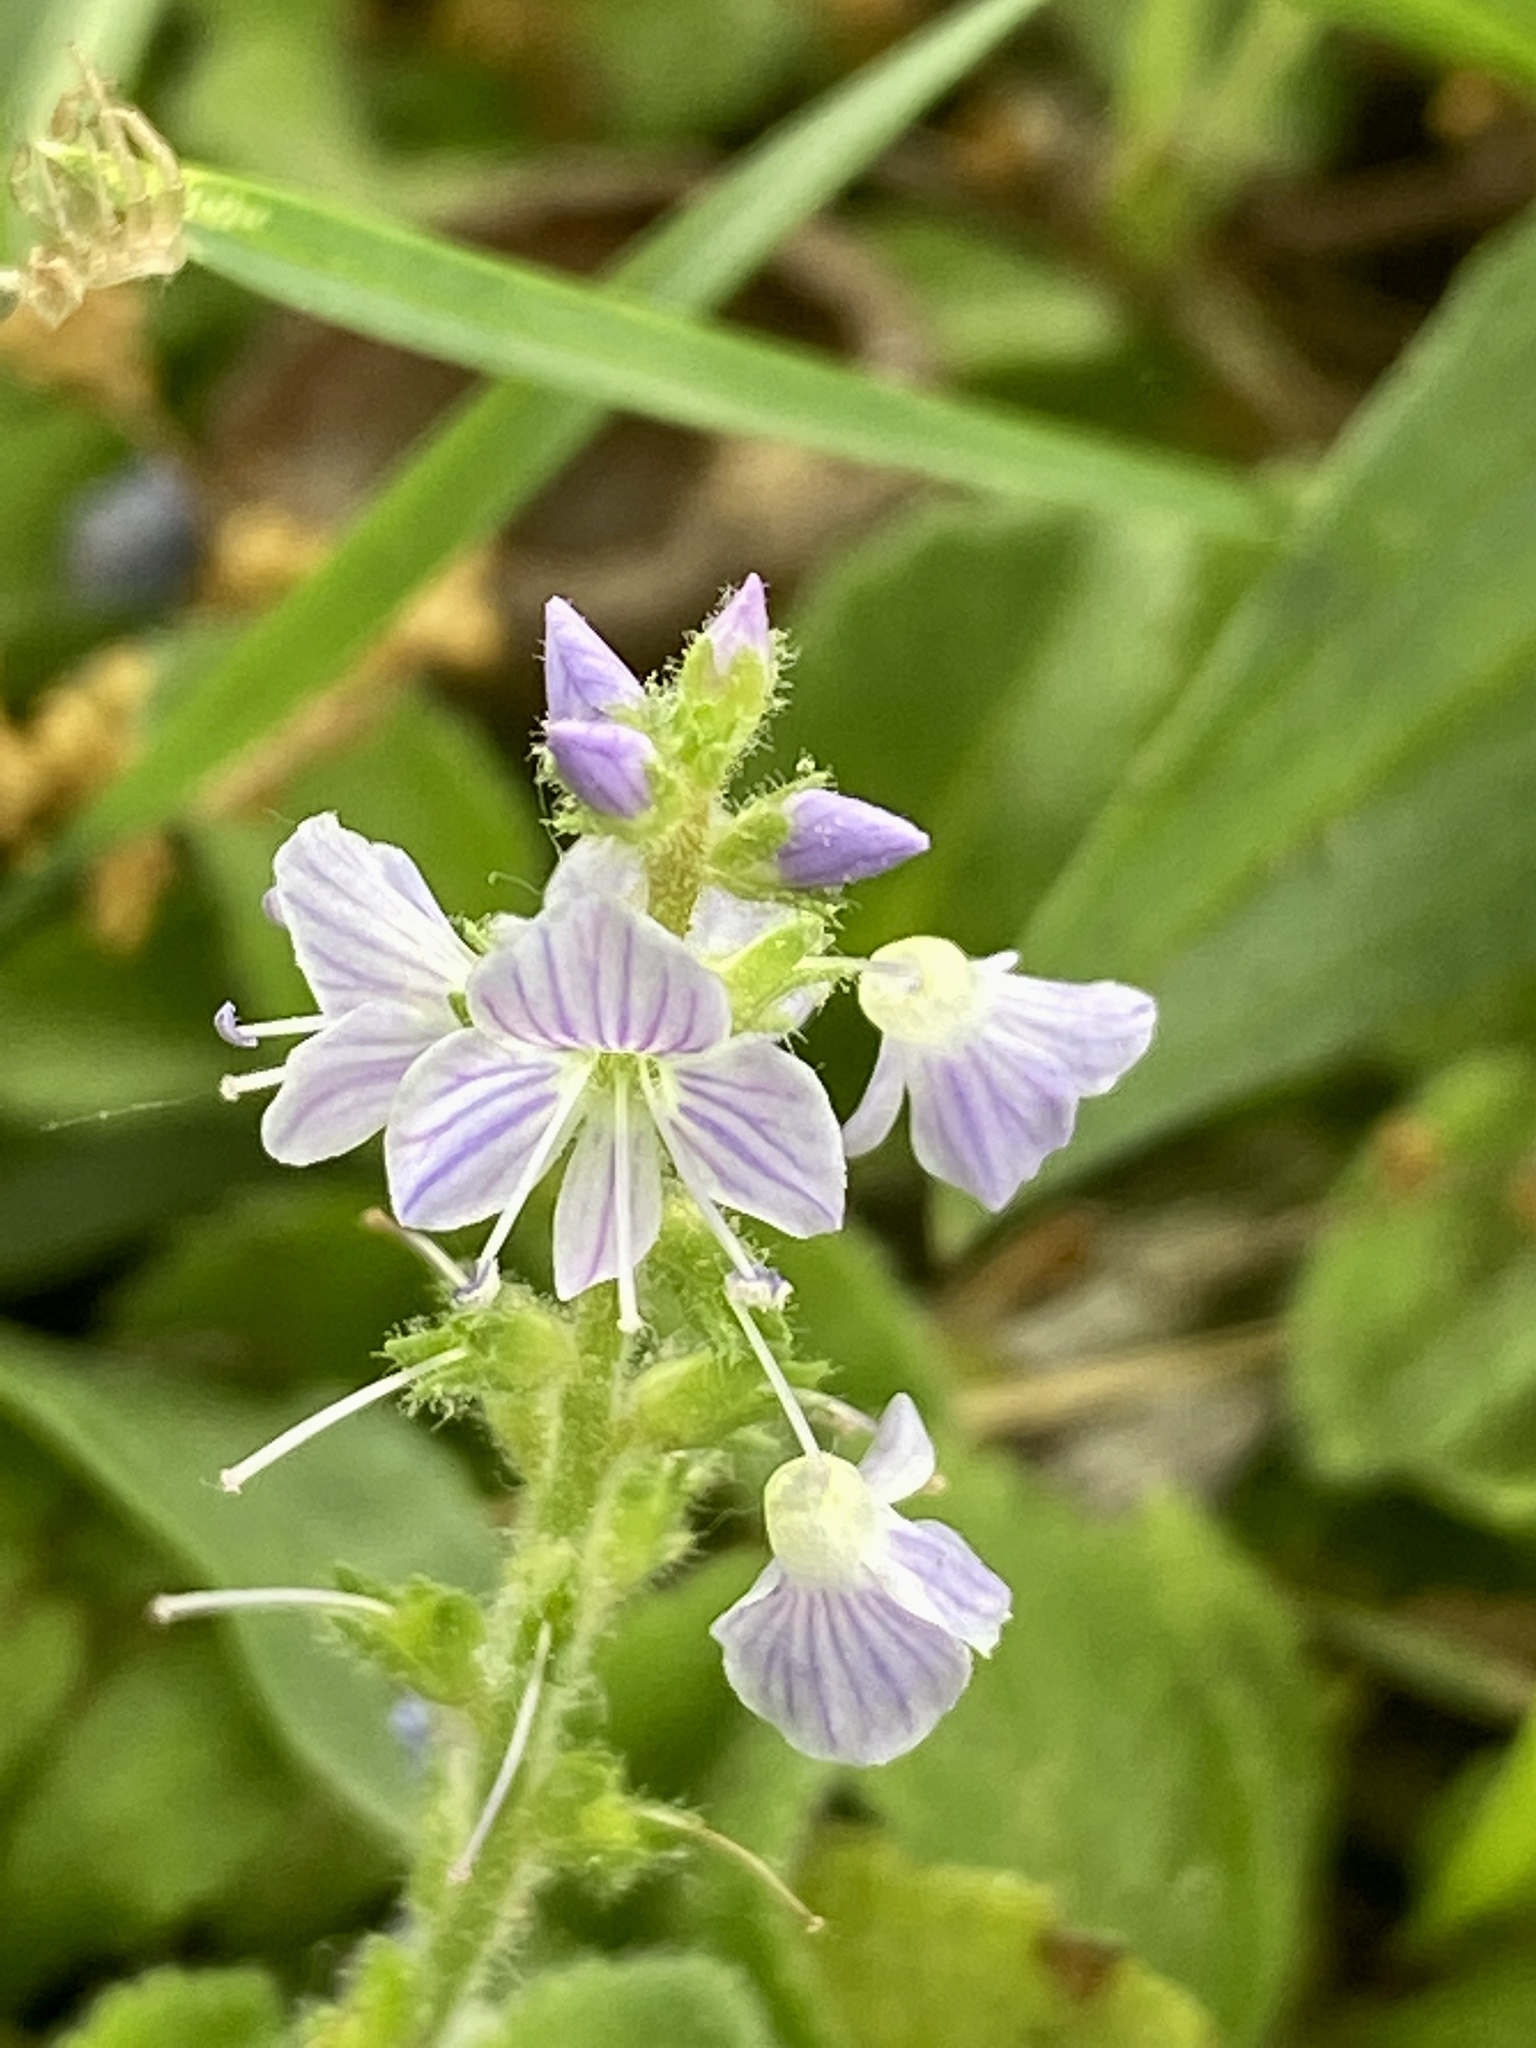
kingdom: Plantae
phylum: Tracheophyta
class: Magnoliopsida
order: Lamiales
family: Plantaginaceae
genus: Veronica
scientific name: Veronica officinalis
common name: Common speedwell
